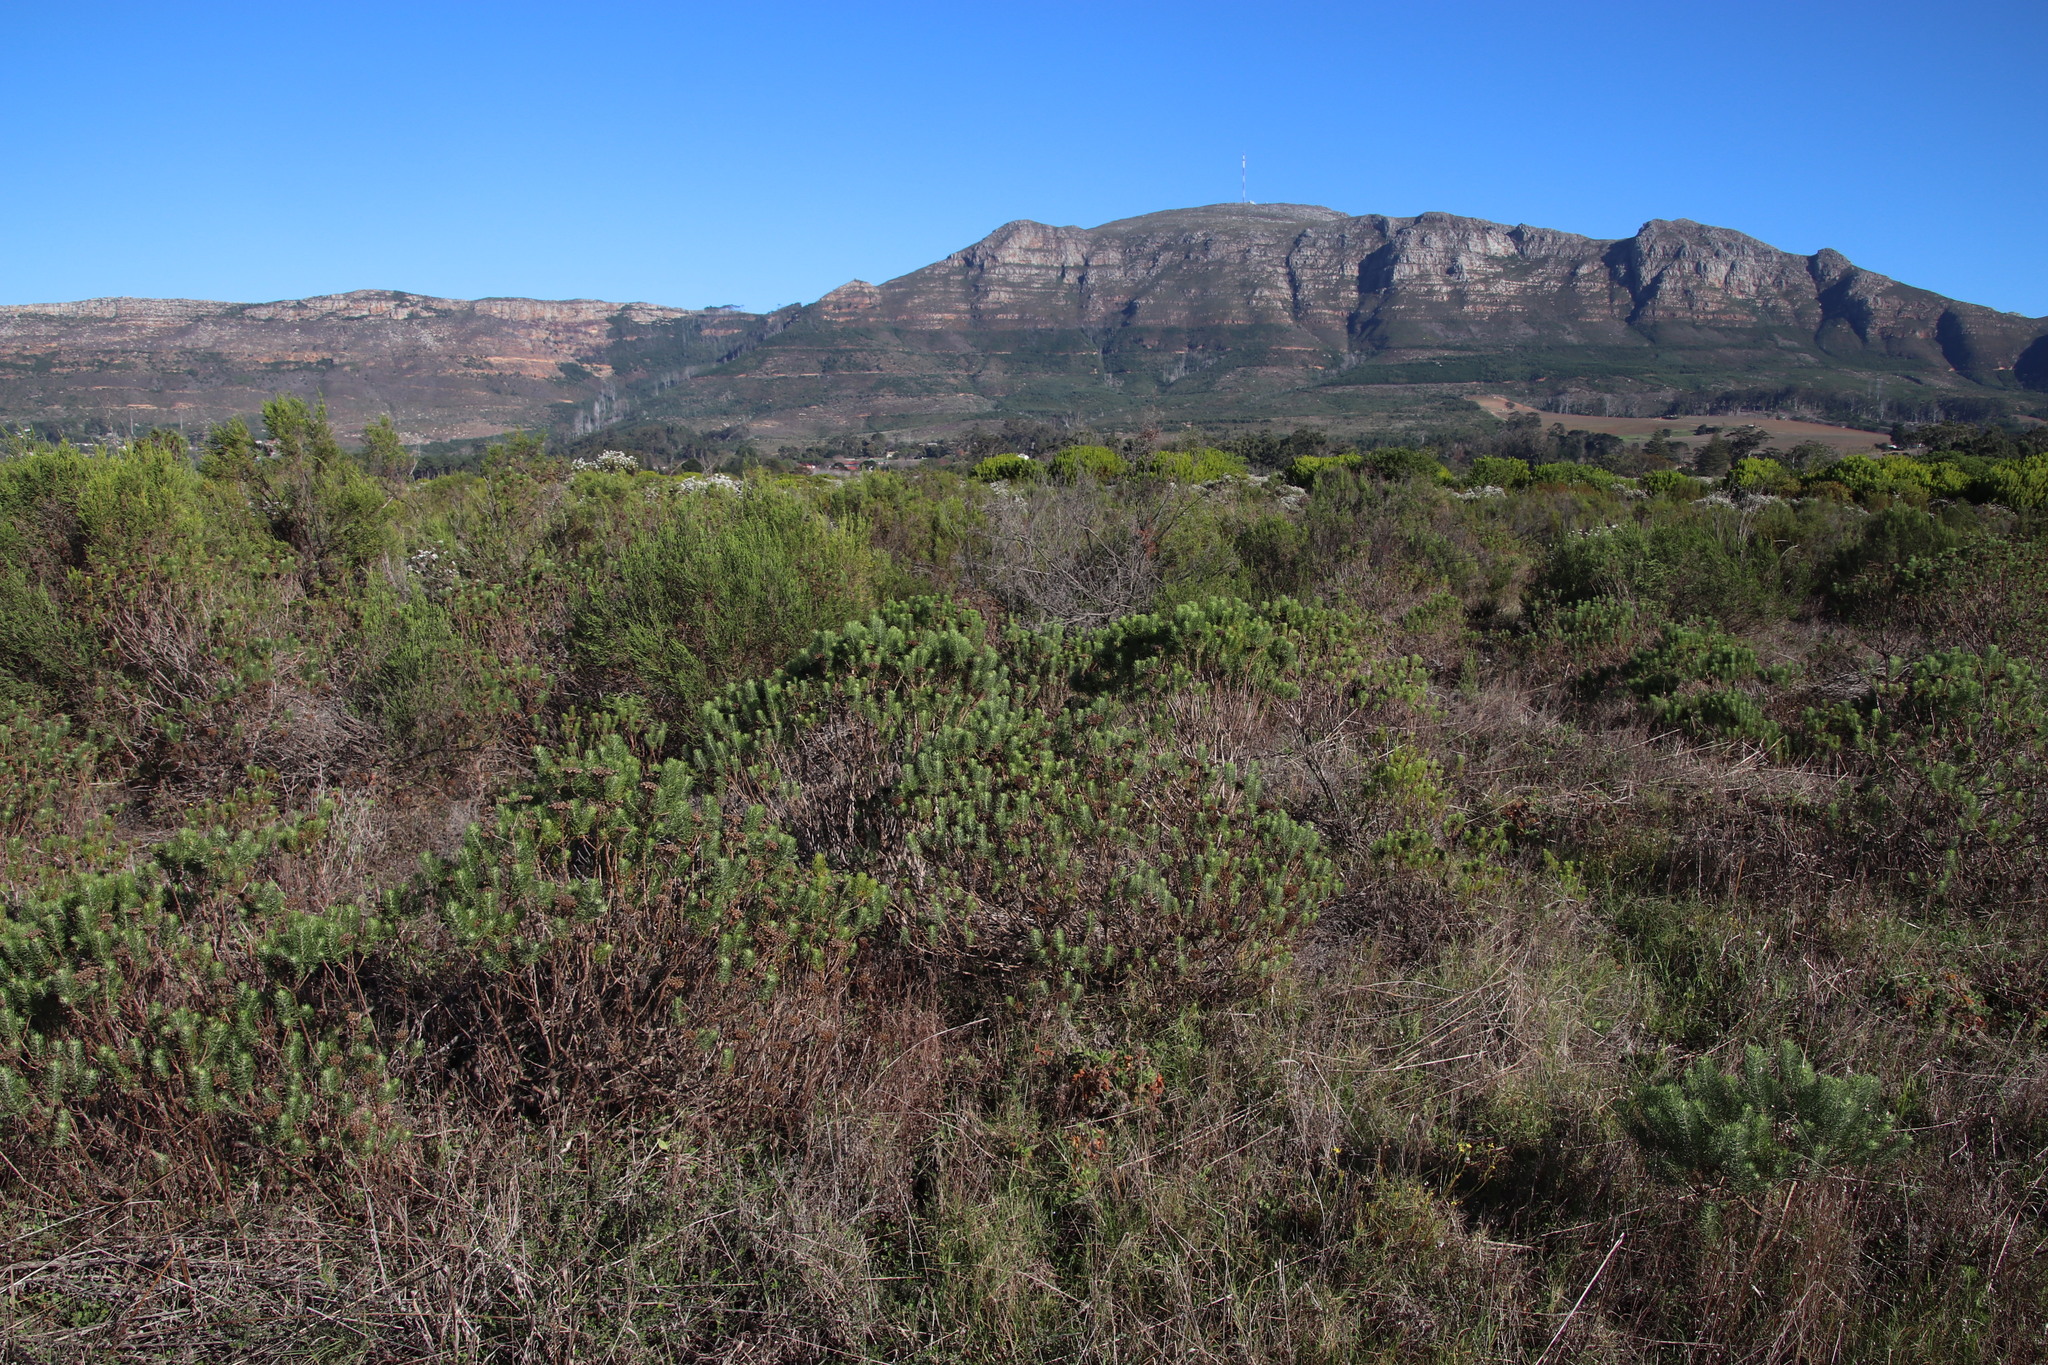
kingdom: Plantae
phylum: Tracheophyta
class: Magnoliopsida
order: Asterales
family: Asteraceae
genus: Athanasia
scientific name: Athanasia crithmifolia
